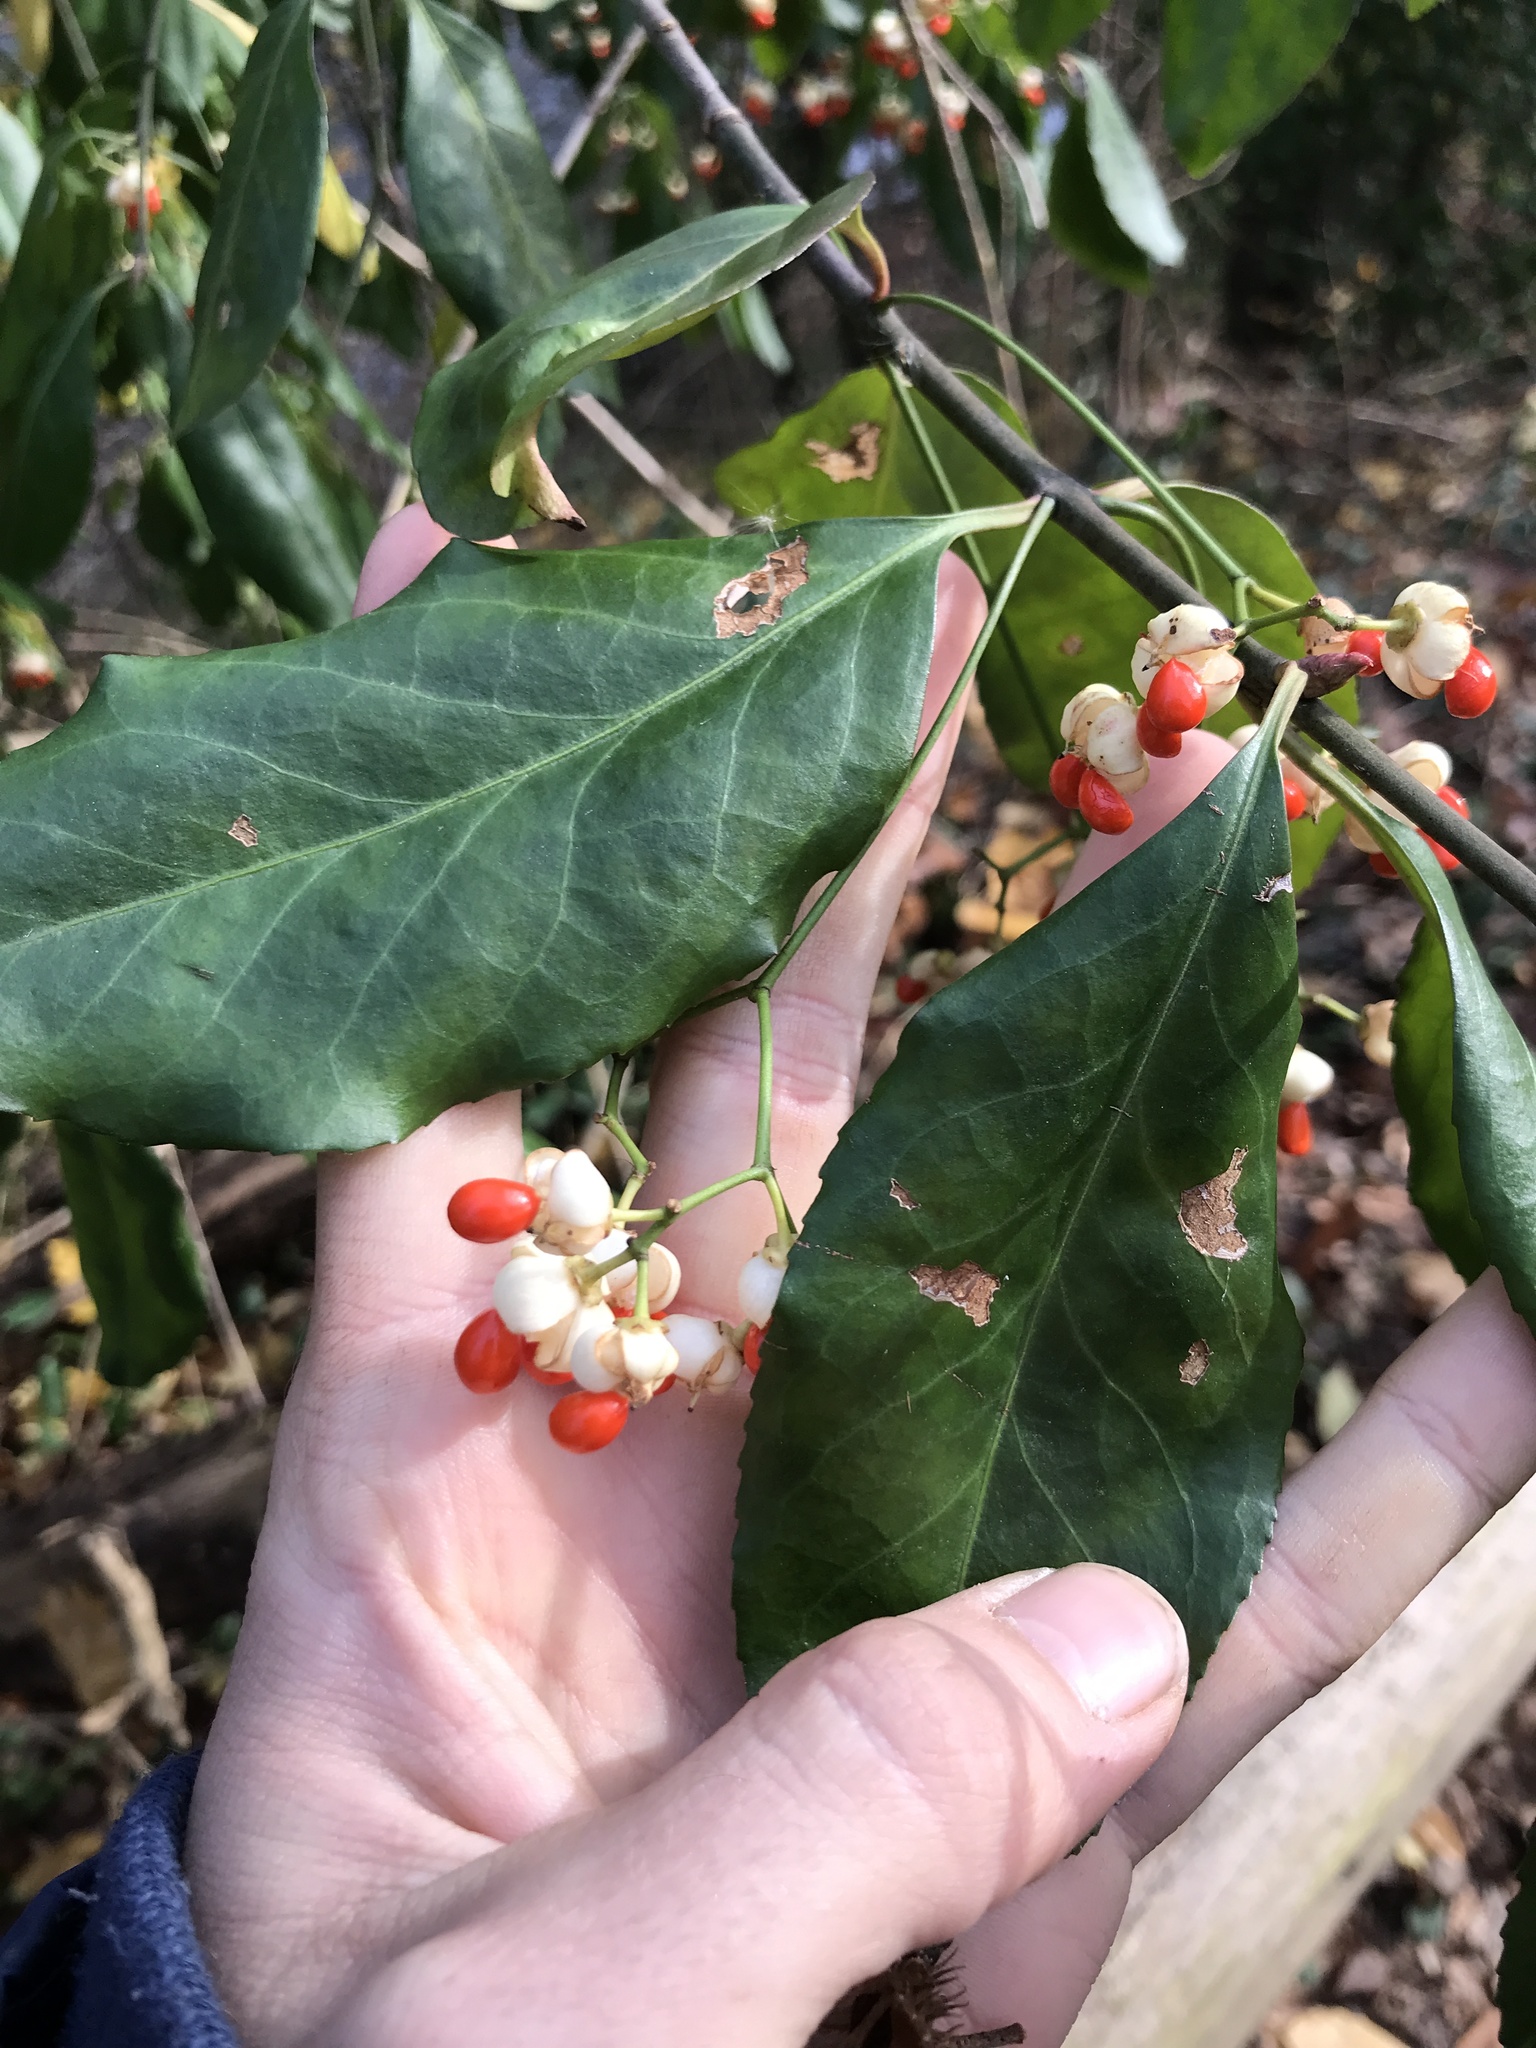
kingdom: Plantae
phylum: Tracheophyta
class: Magnoliopsida
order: Celastrales
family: Celastraceae
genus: Euonymus
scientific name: Euonymus fortunei
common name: Climbing euonymus
